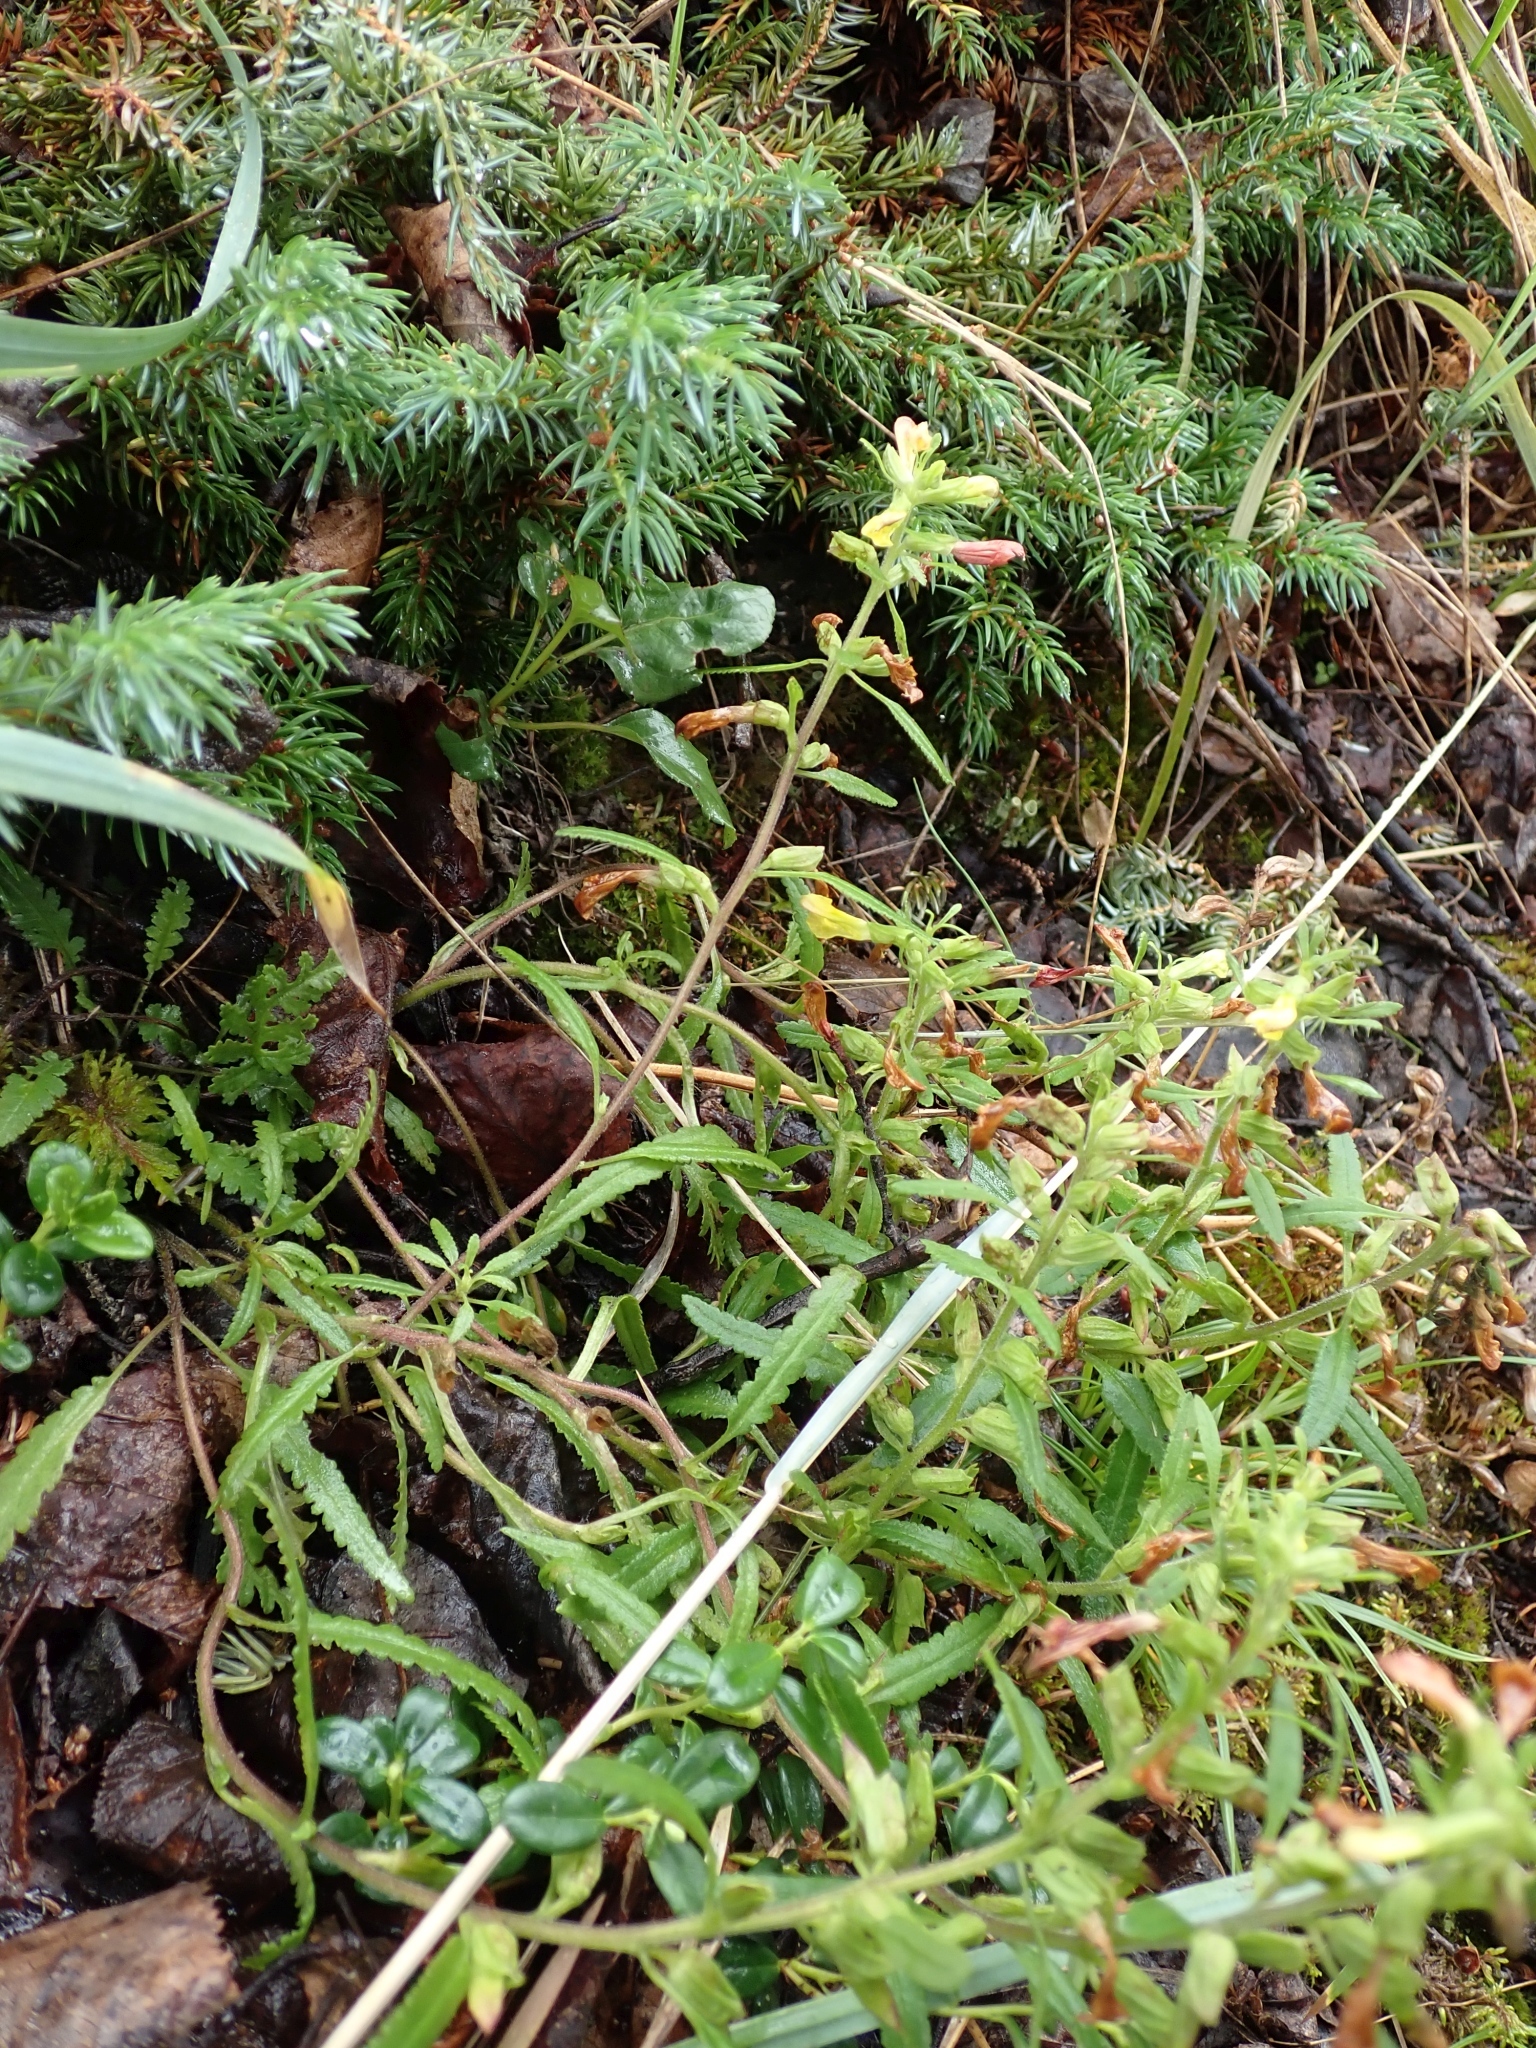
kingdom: Plantae
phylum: Tracheophyta
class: Magnoliopsida
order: Lamiales
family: Orobanchaceae
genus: Pedicularis
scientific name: Pedicularis labradorica
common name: Labrador lousewort
